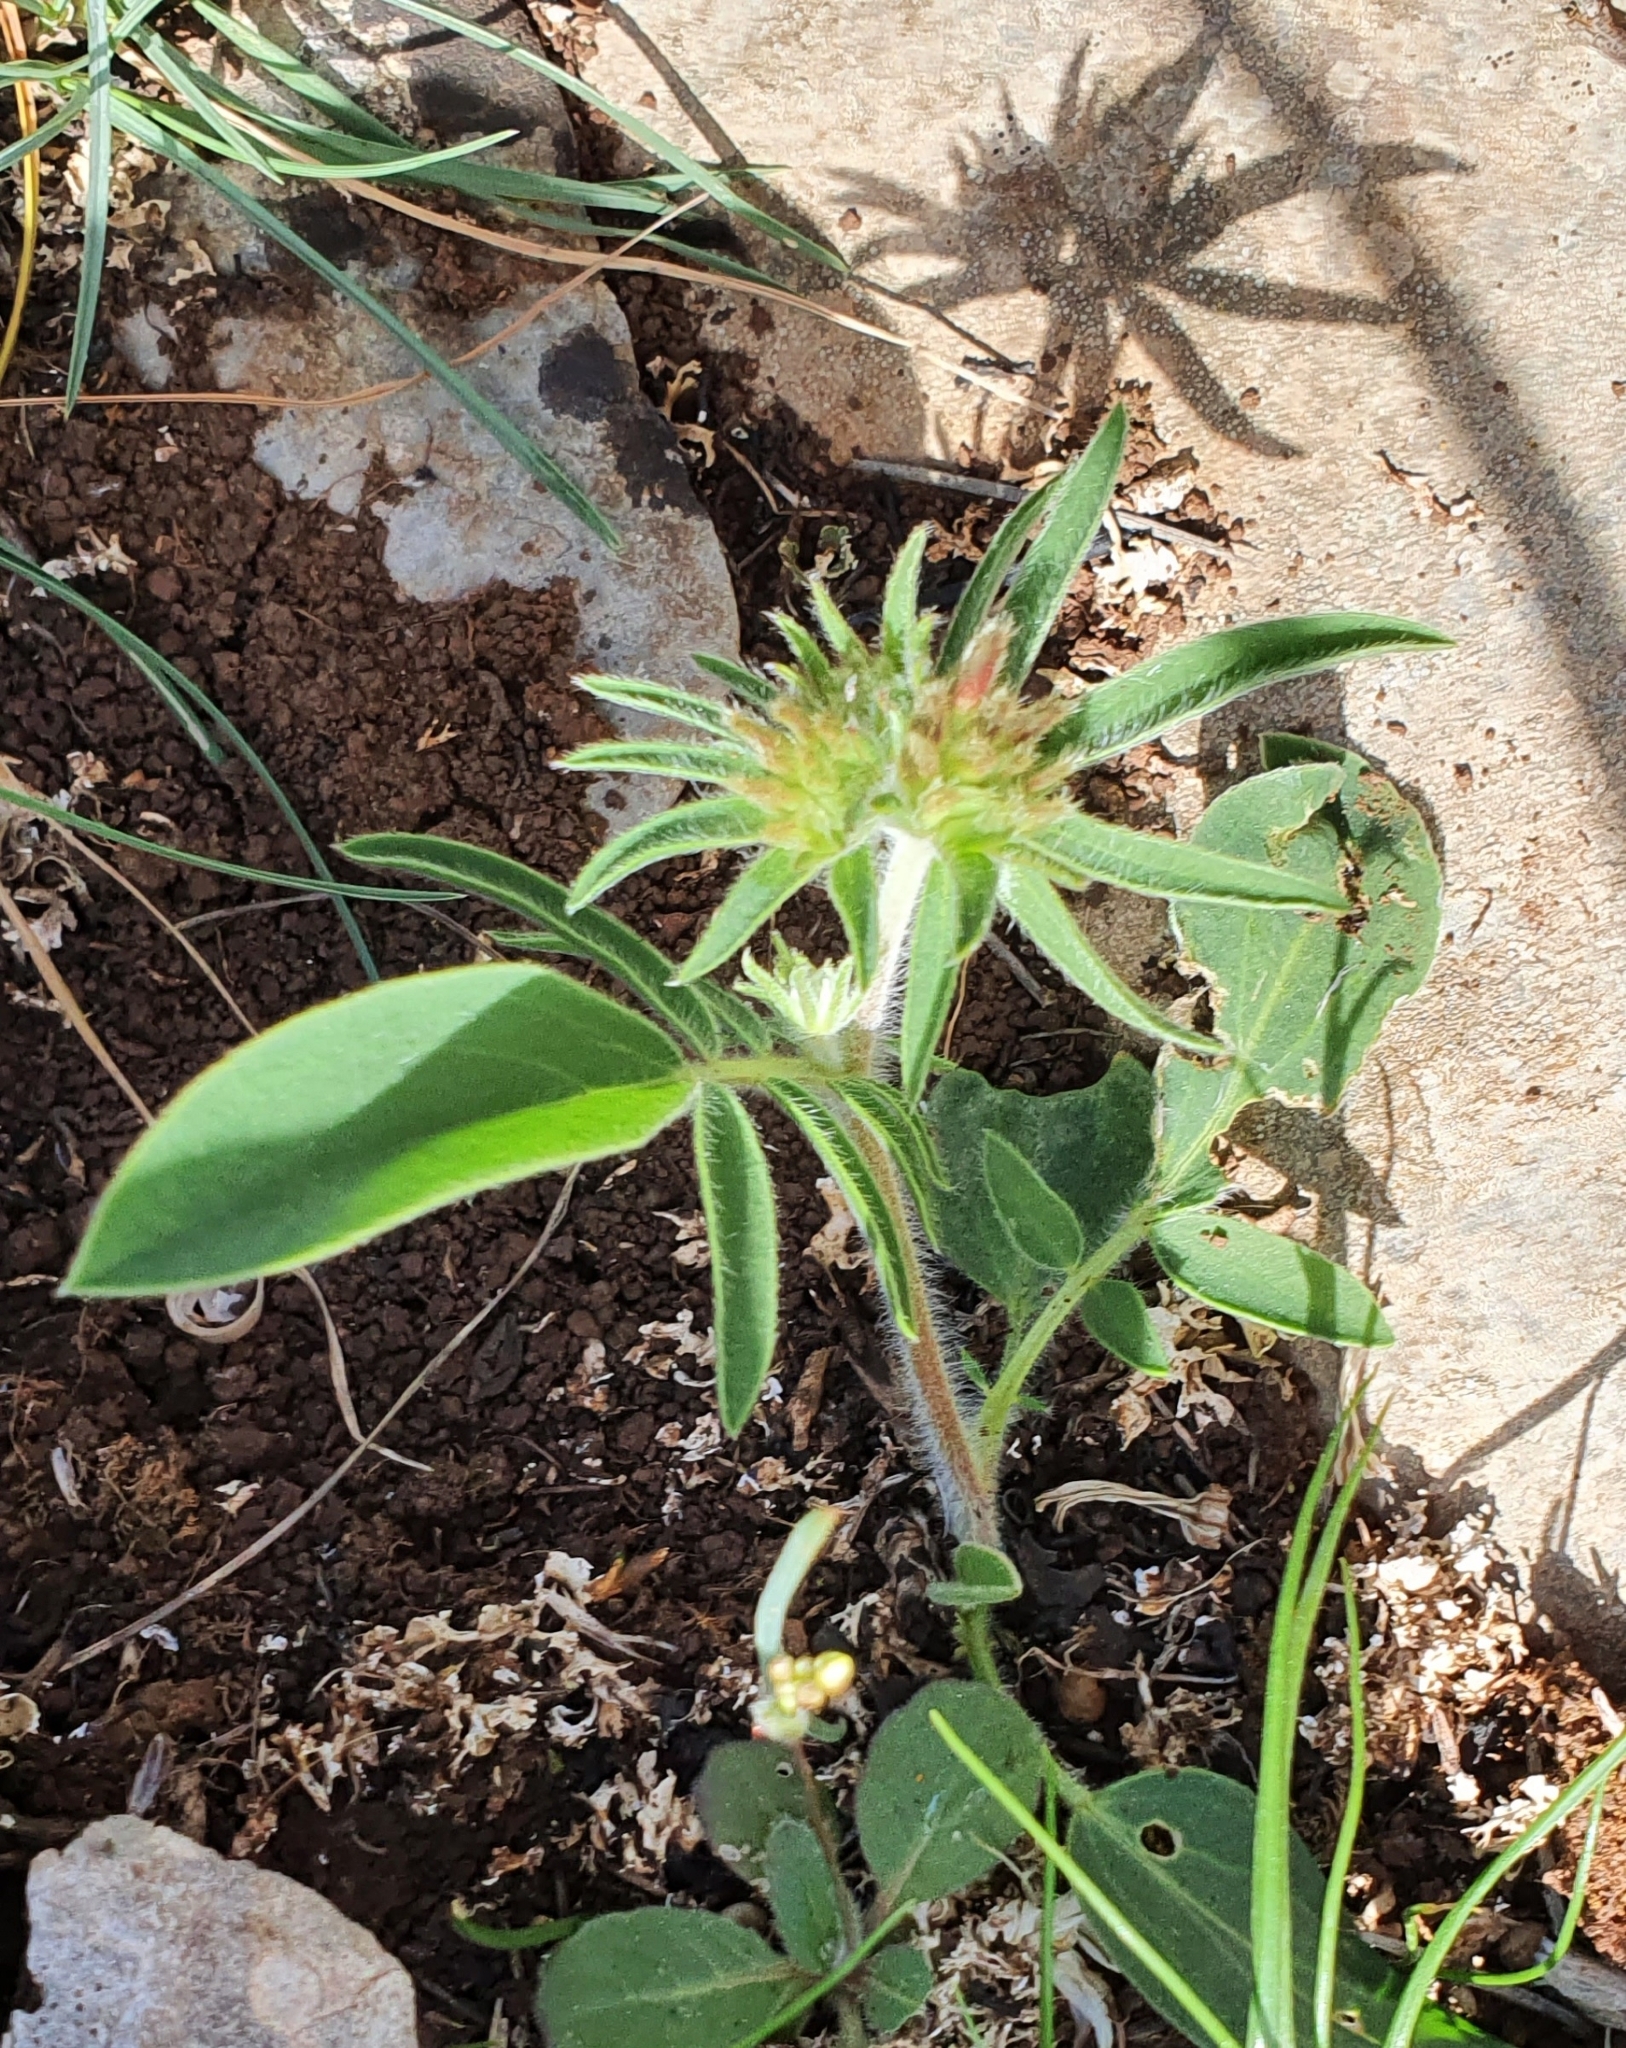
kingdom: Plantae
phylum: Tracheophyta
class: Magnoliopsida
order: Fabales
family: Fabaceae
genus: Anthyllis
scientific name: Anthyllis vulneraria
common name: Kidney vetch
